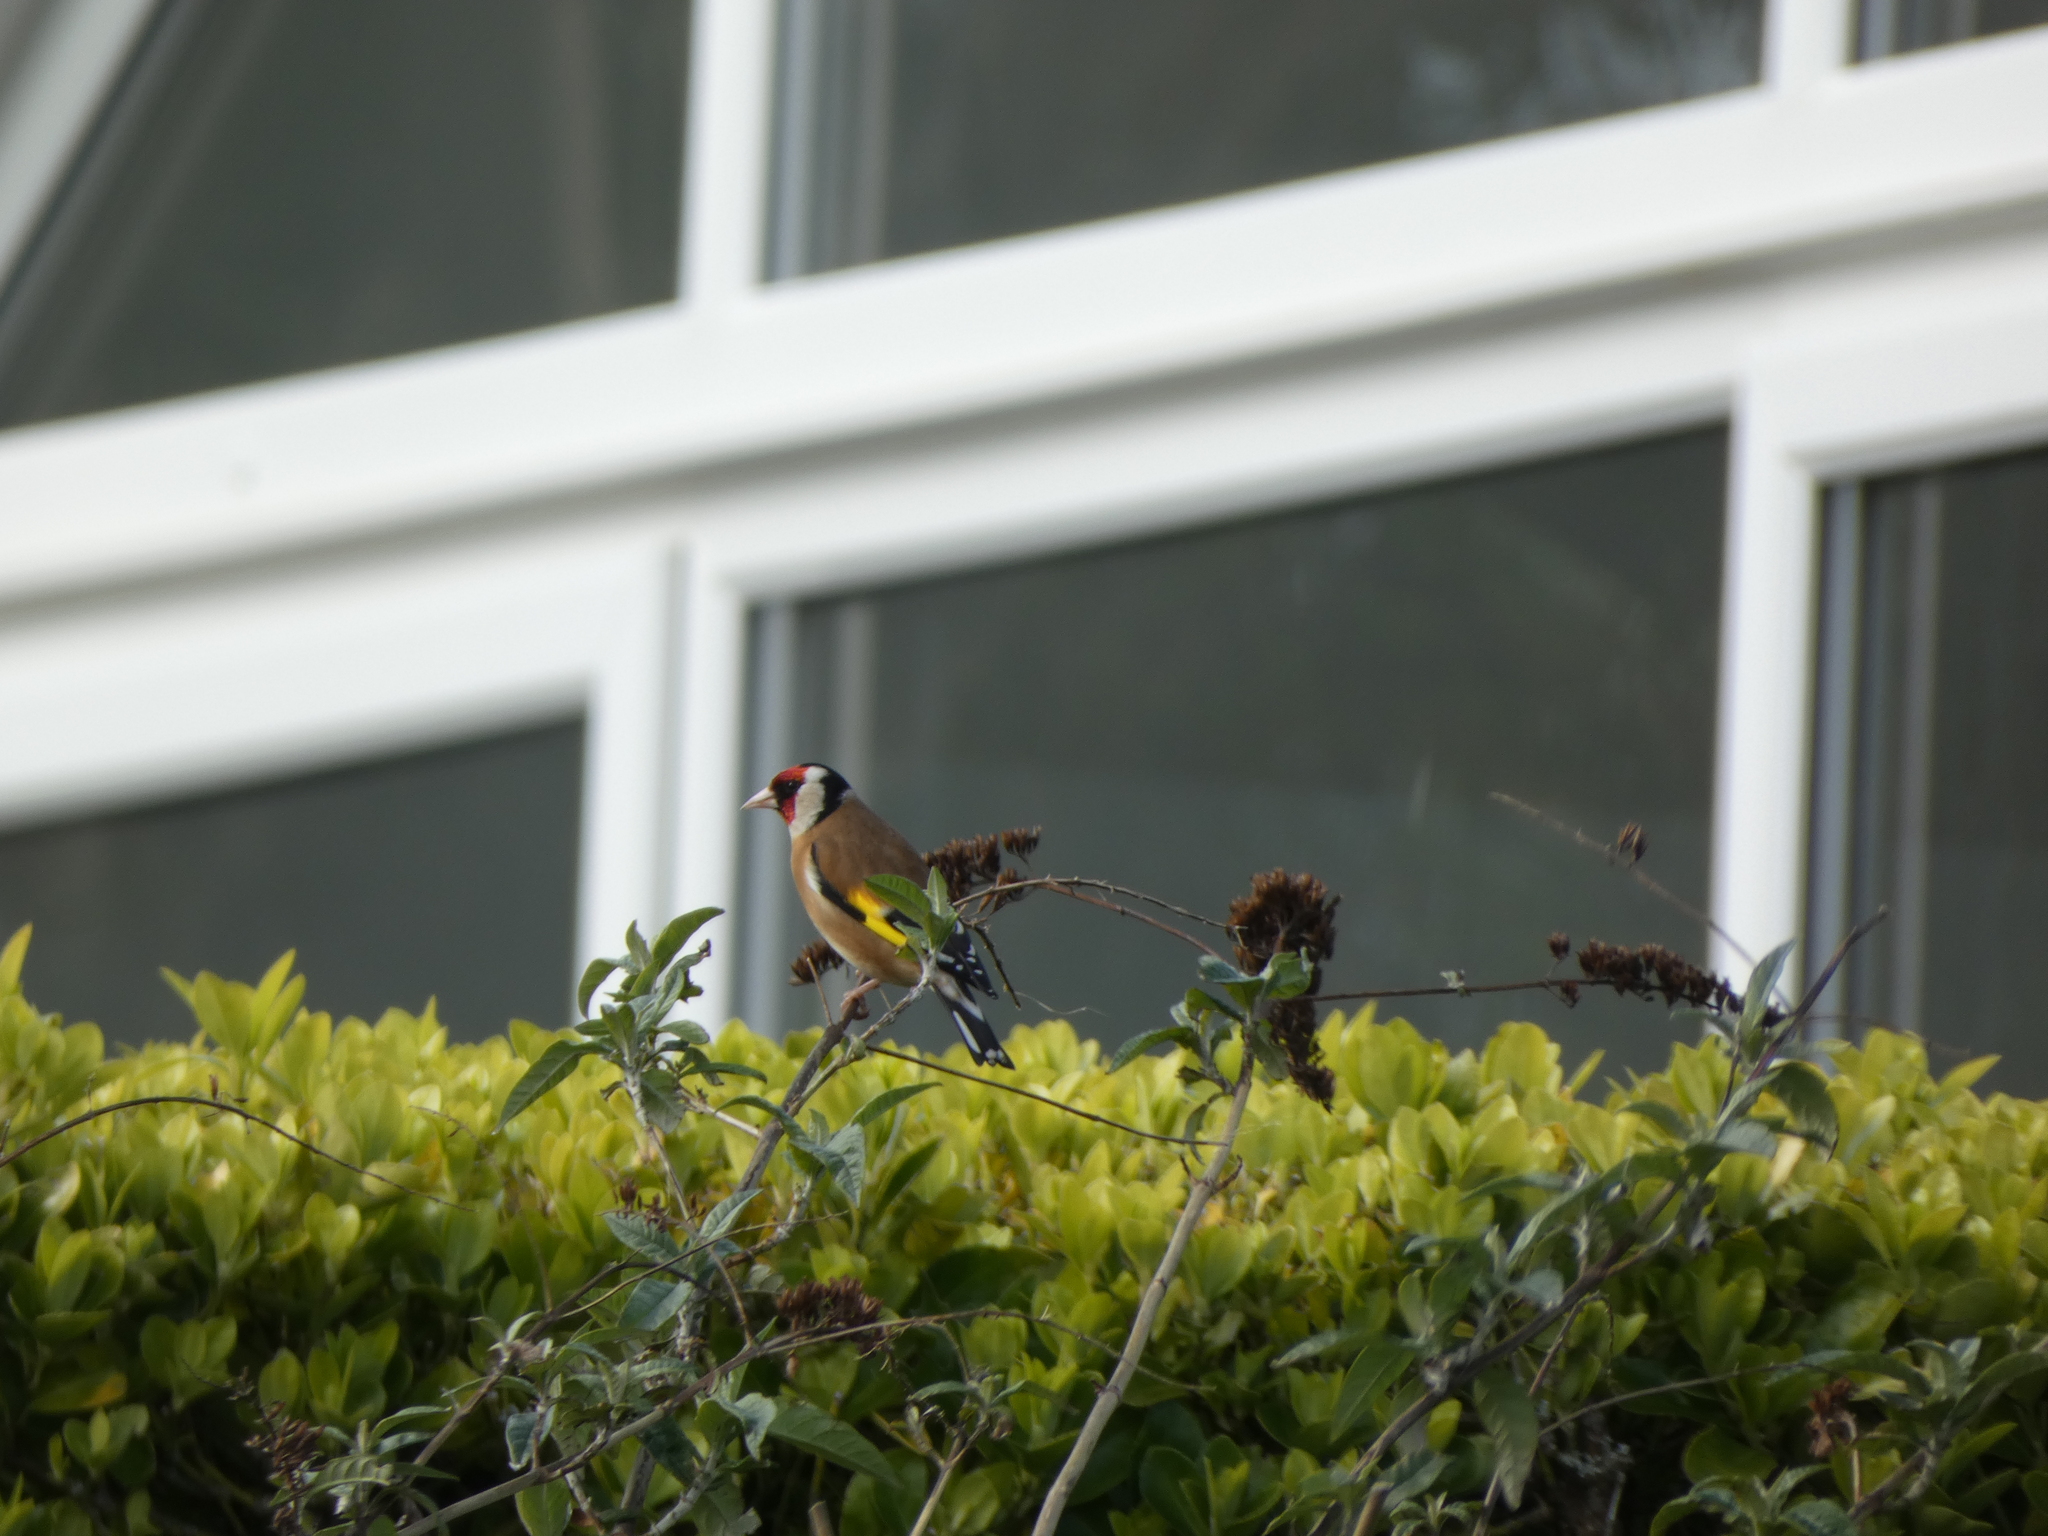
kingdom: Animalia
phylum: Chordata
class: Aves
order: Passeriformes
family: Fringillidae
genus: Carduelis
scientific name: Carduelis carduelis
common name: European goldfinch
